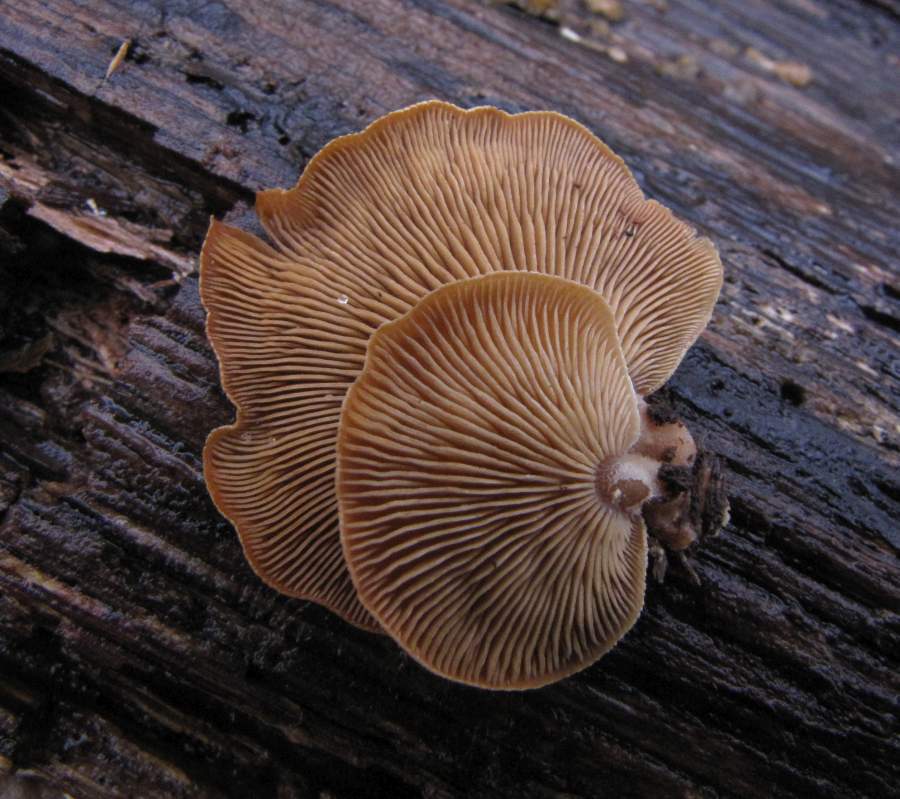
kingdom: Fungi
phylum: Basidiomycota
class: Agaricomycetes
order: Agaricales
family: Mycenaceae
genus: Panellus
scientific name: Panellus stipticus
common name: Bitter oysterling
